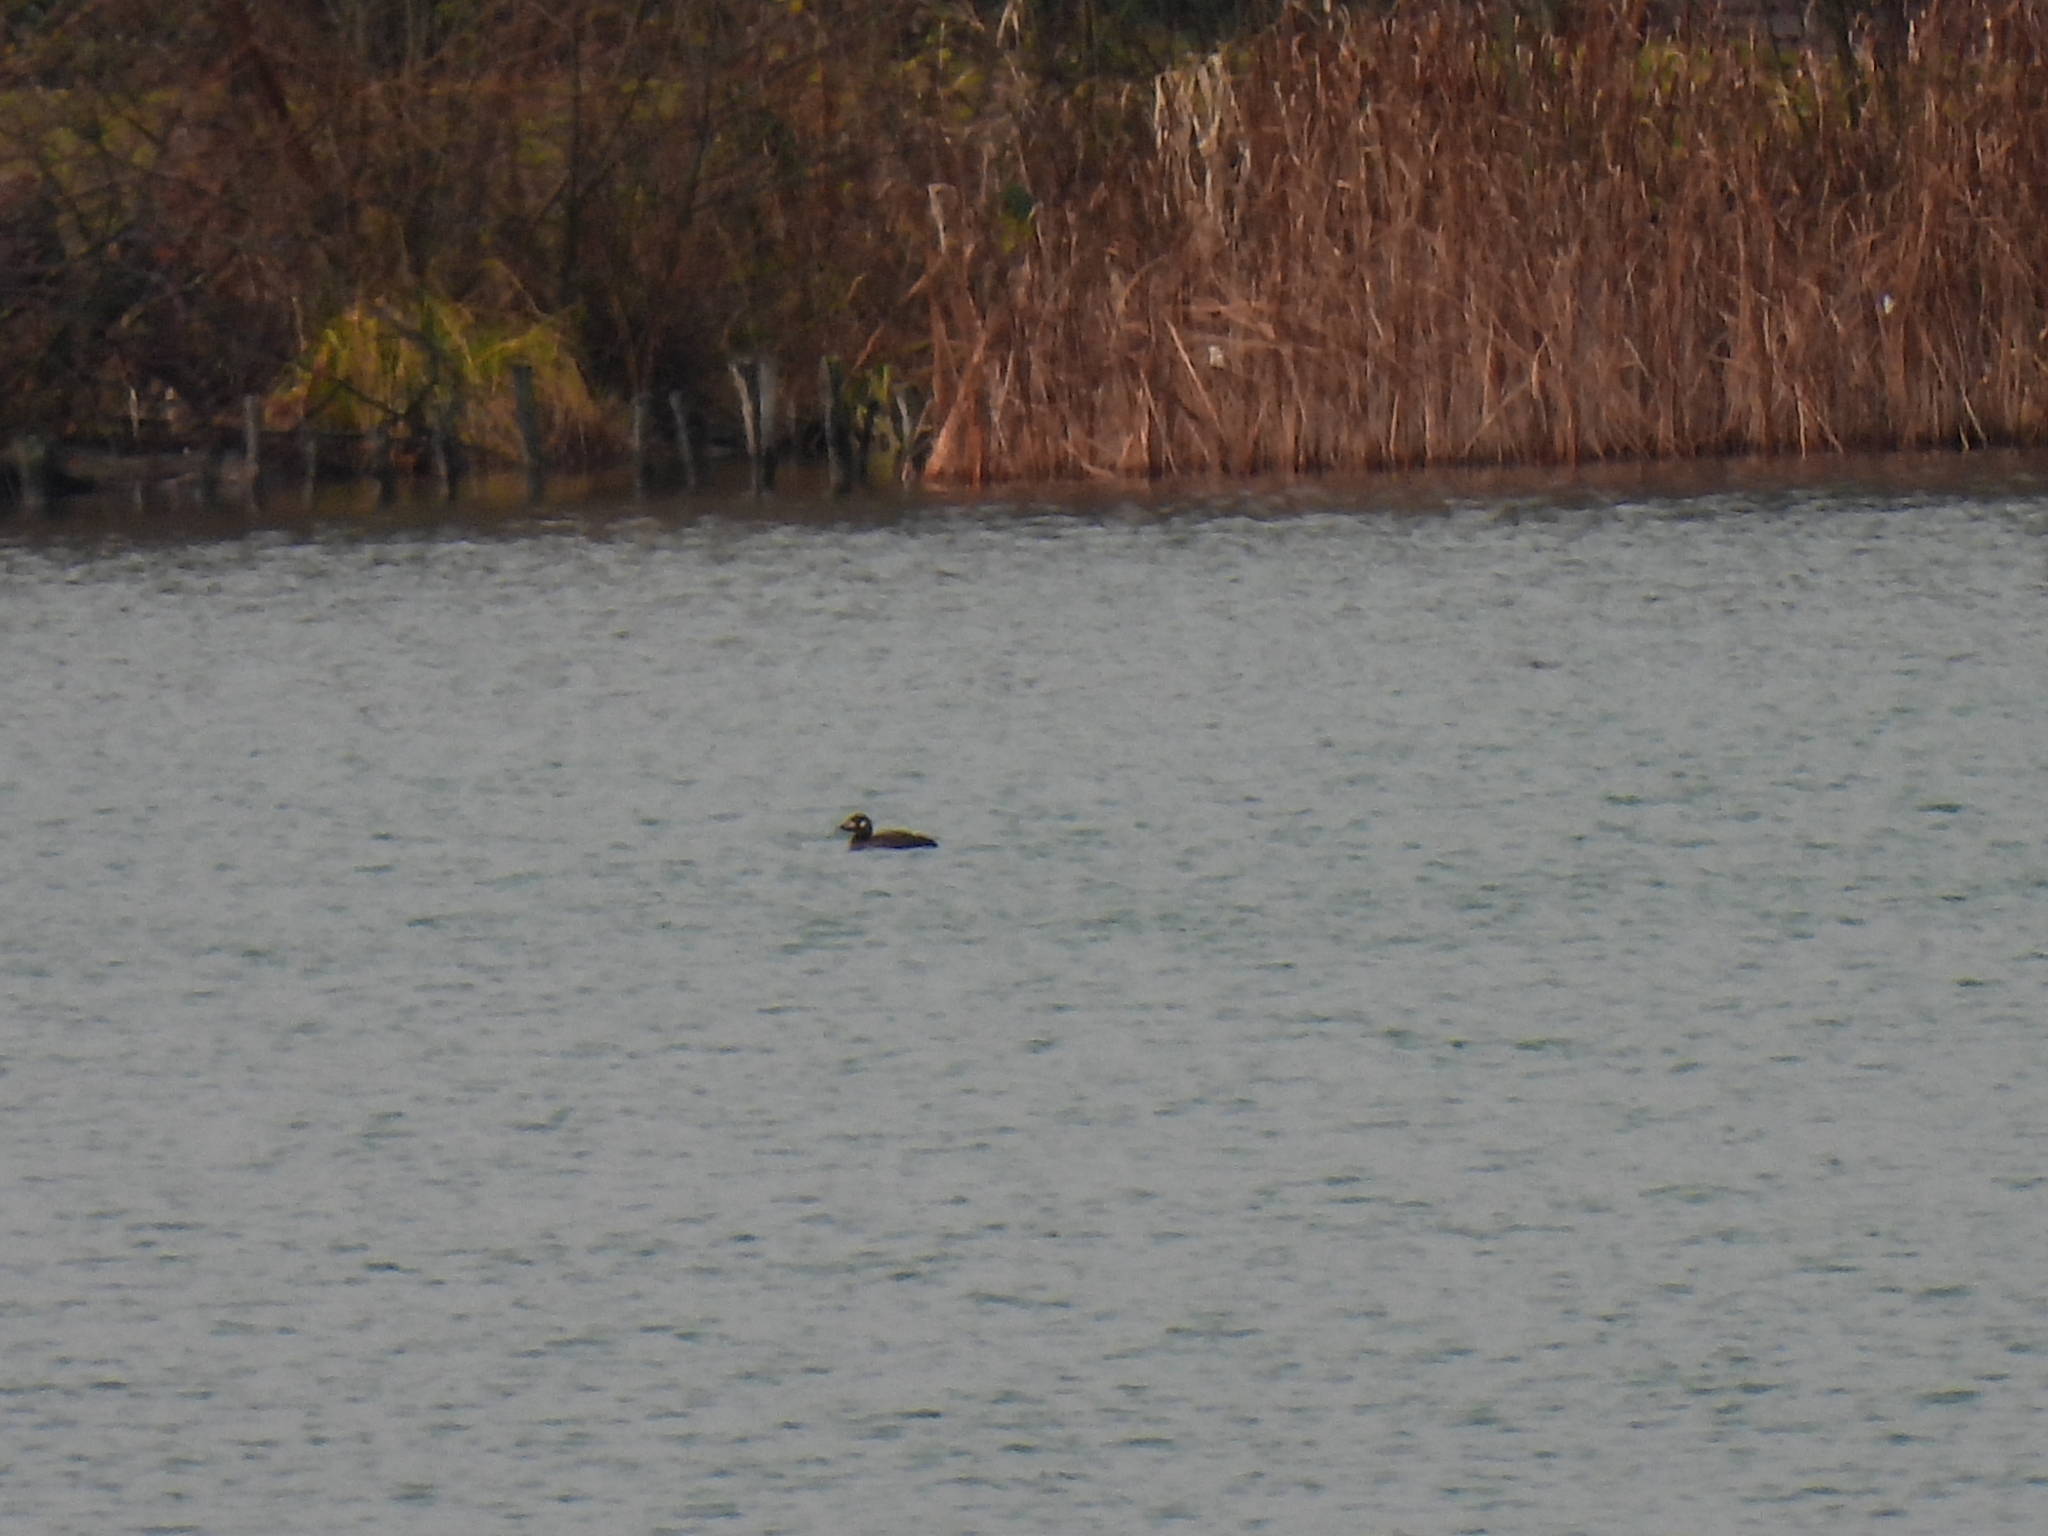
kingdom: Animalia
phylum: Chordata
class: Aves
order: Anseriformes
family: Anatidae
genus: Melanitta
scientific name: Melanitta fusca
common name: Velvet scoter
